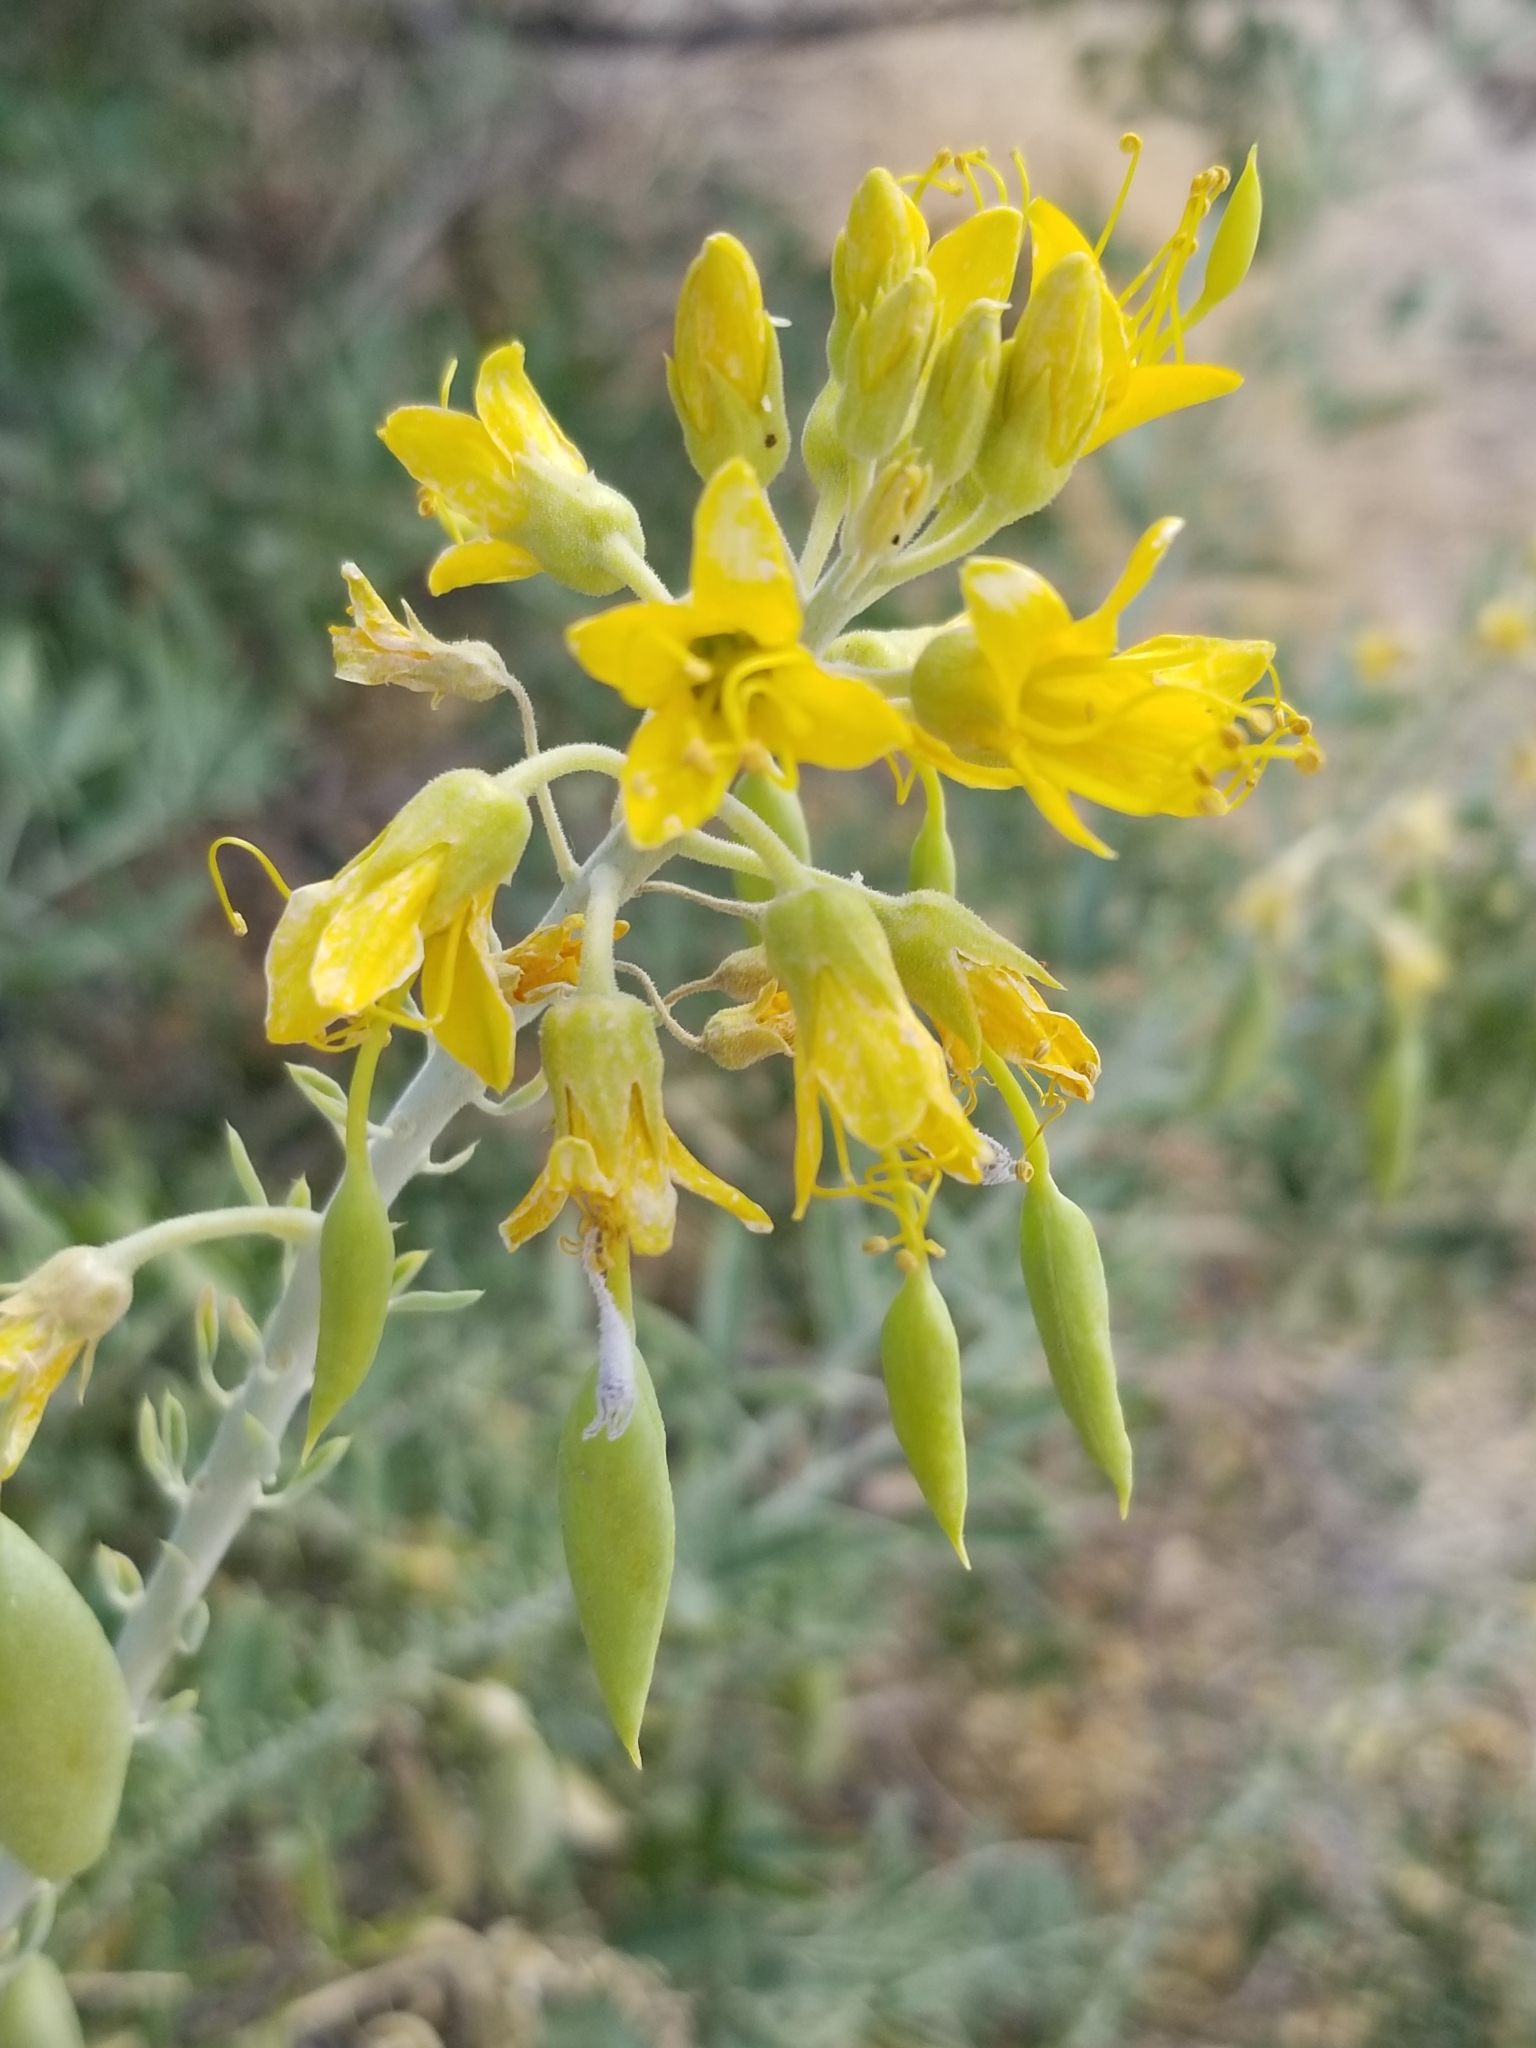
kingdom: Plantae
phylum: Tracheophyta
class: Magnoliopsida
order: Brassicales
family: Cleomaceae
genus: Cleomella
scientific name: Cleomella arborea
